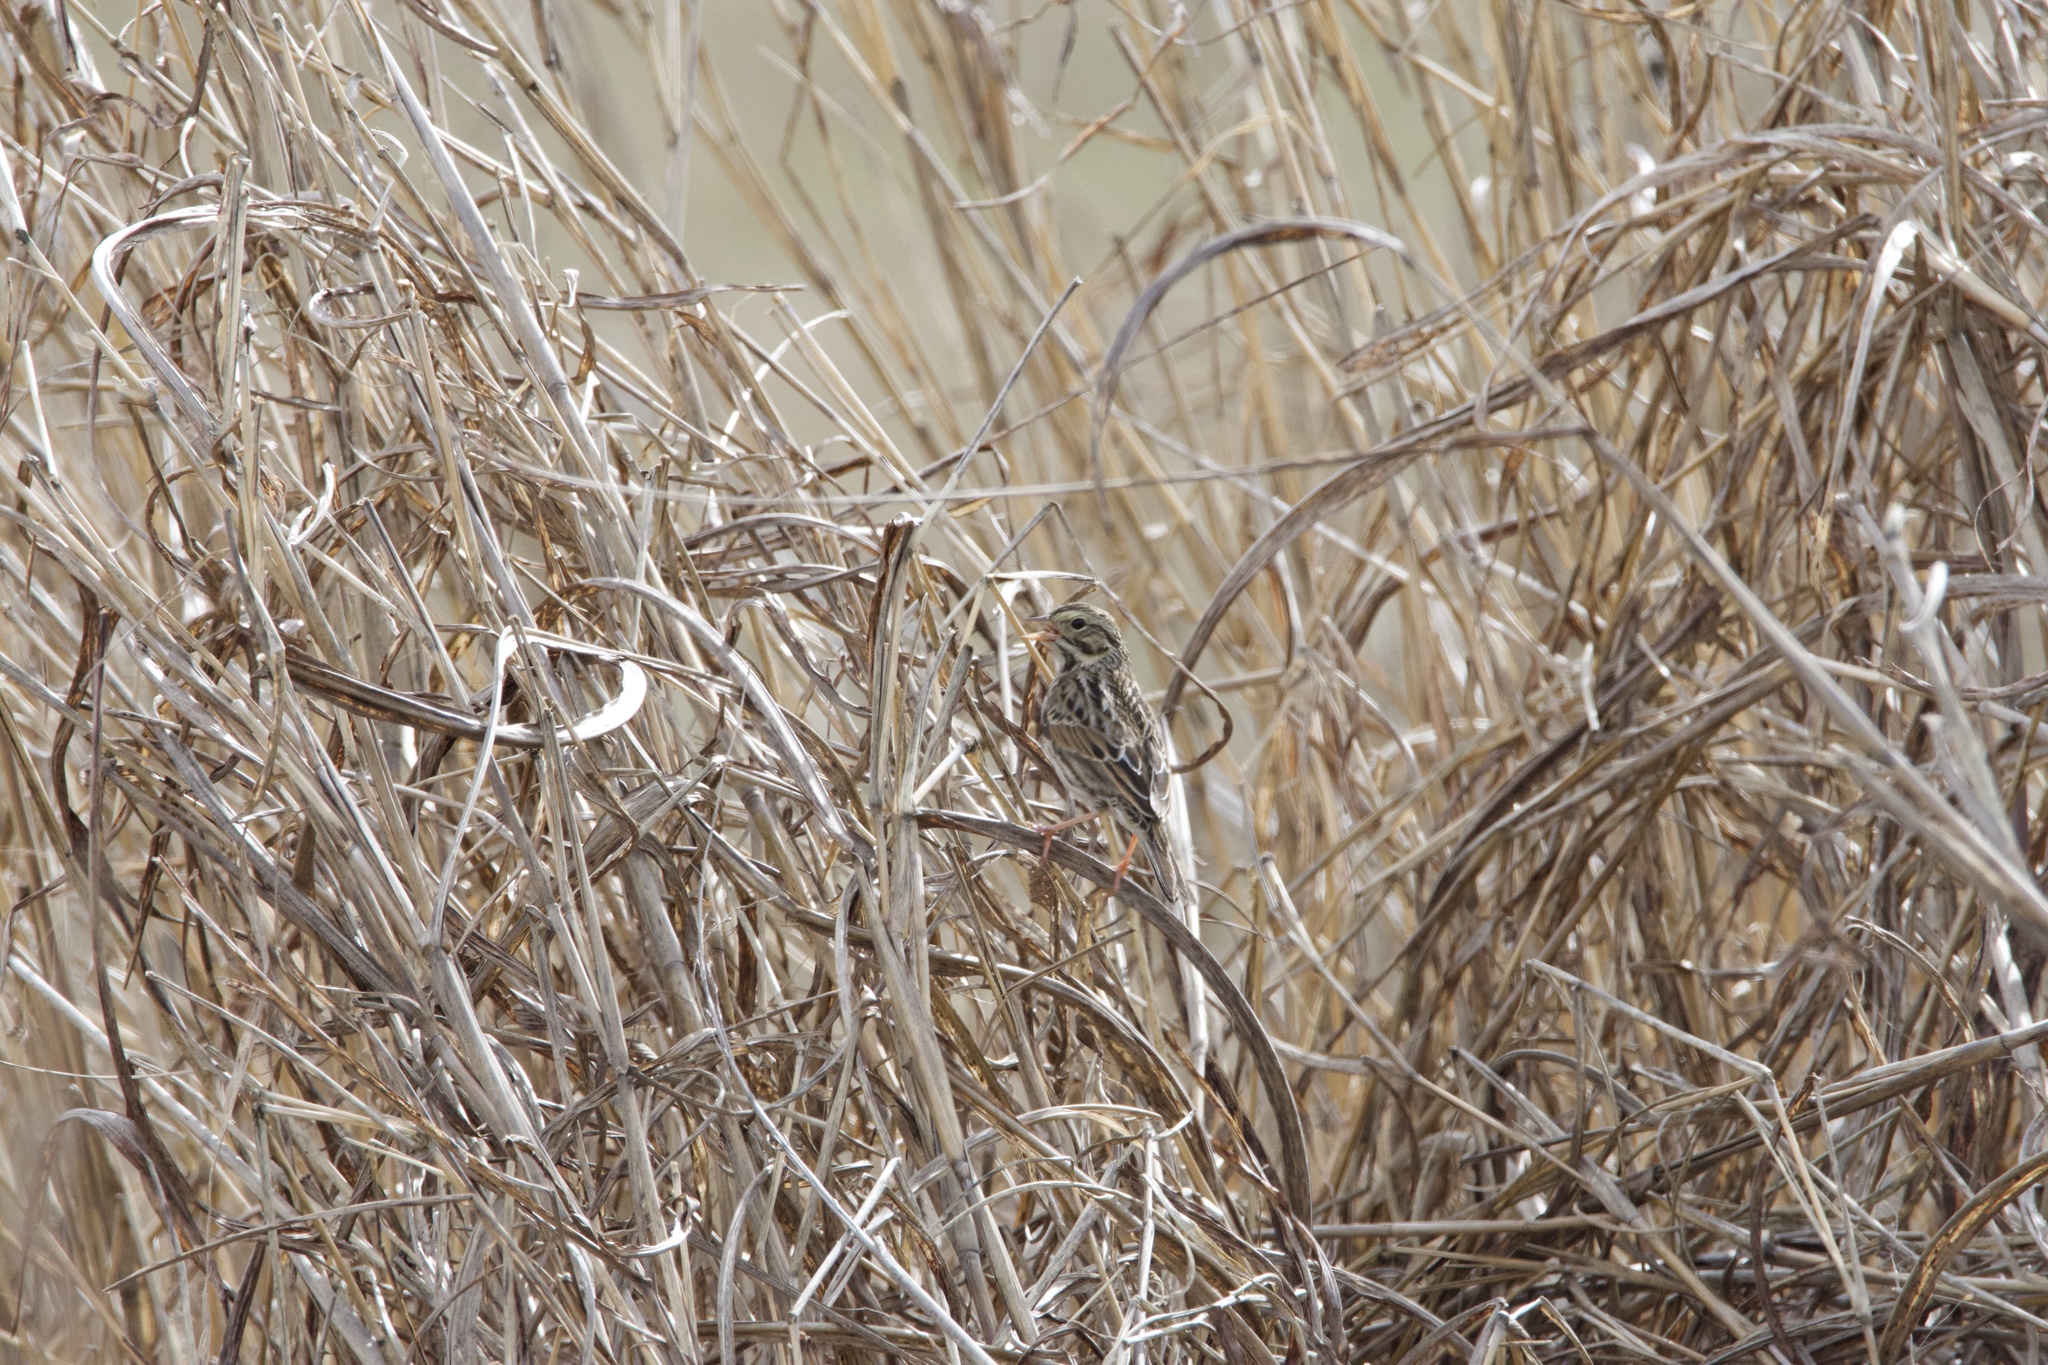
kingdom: Animalia
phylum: Chordata
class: Aves
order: Passeriformes
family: Passerellidae
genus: Passerculus
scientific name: Passerculus sandwichensis
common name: Savannah sparrow
